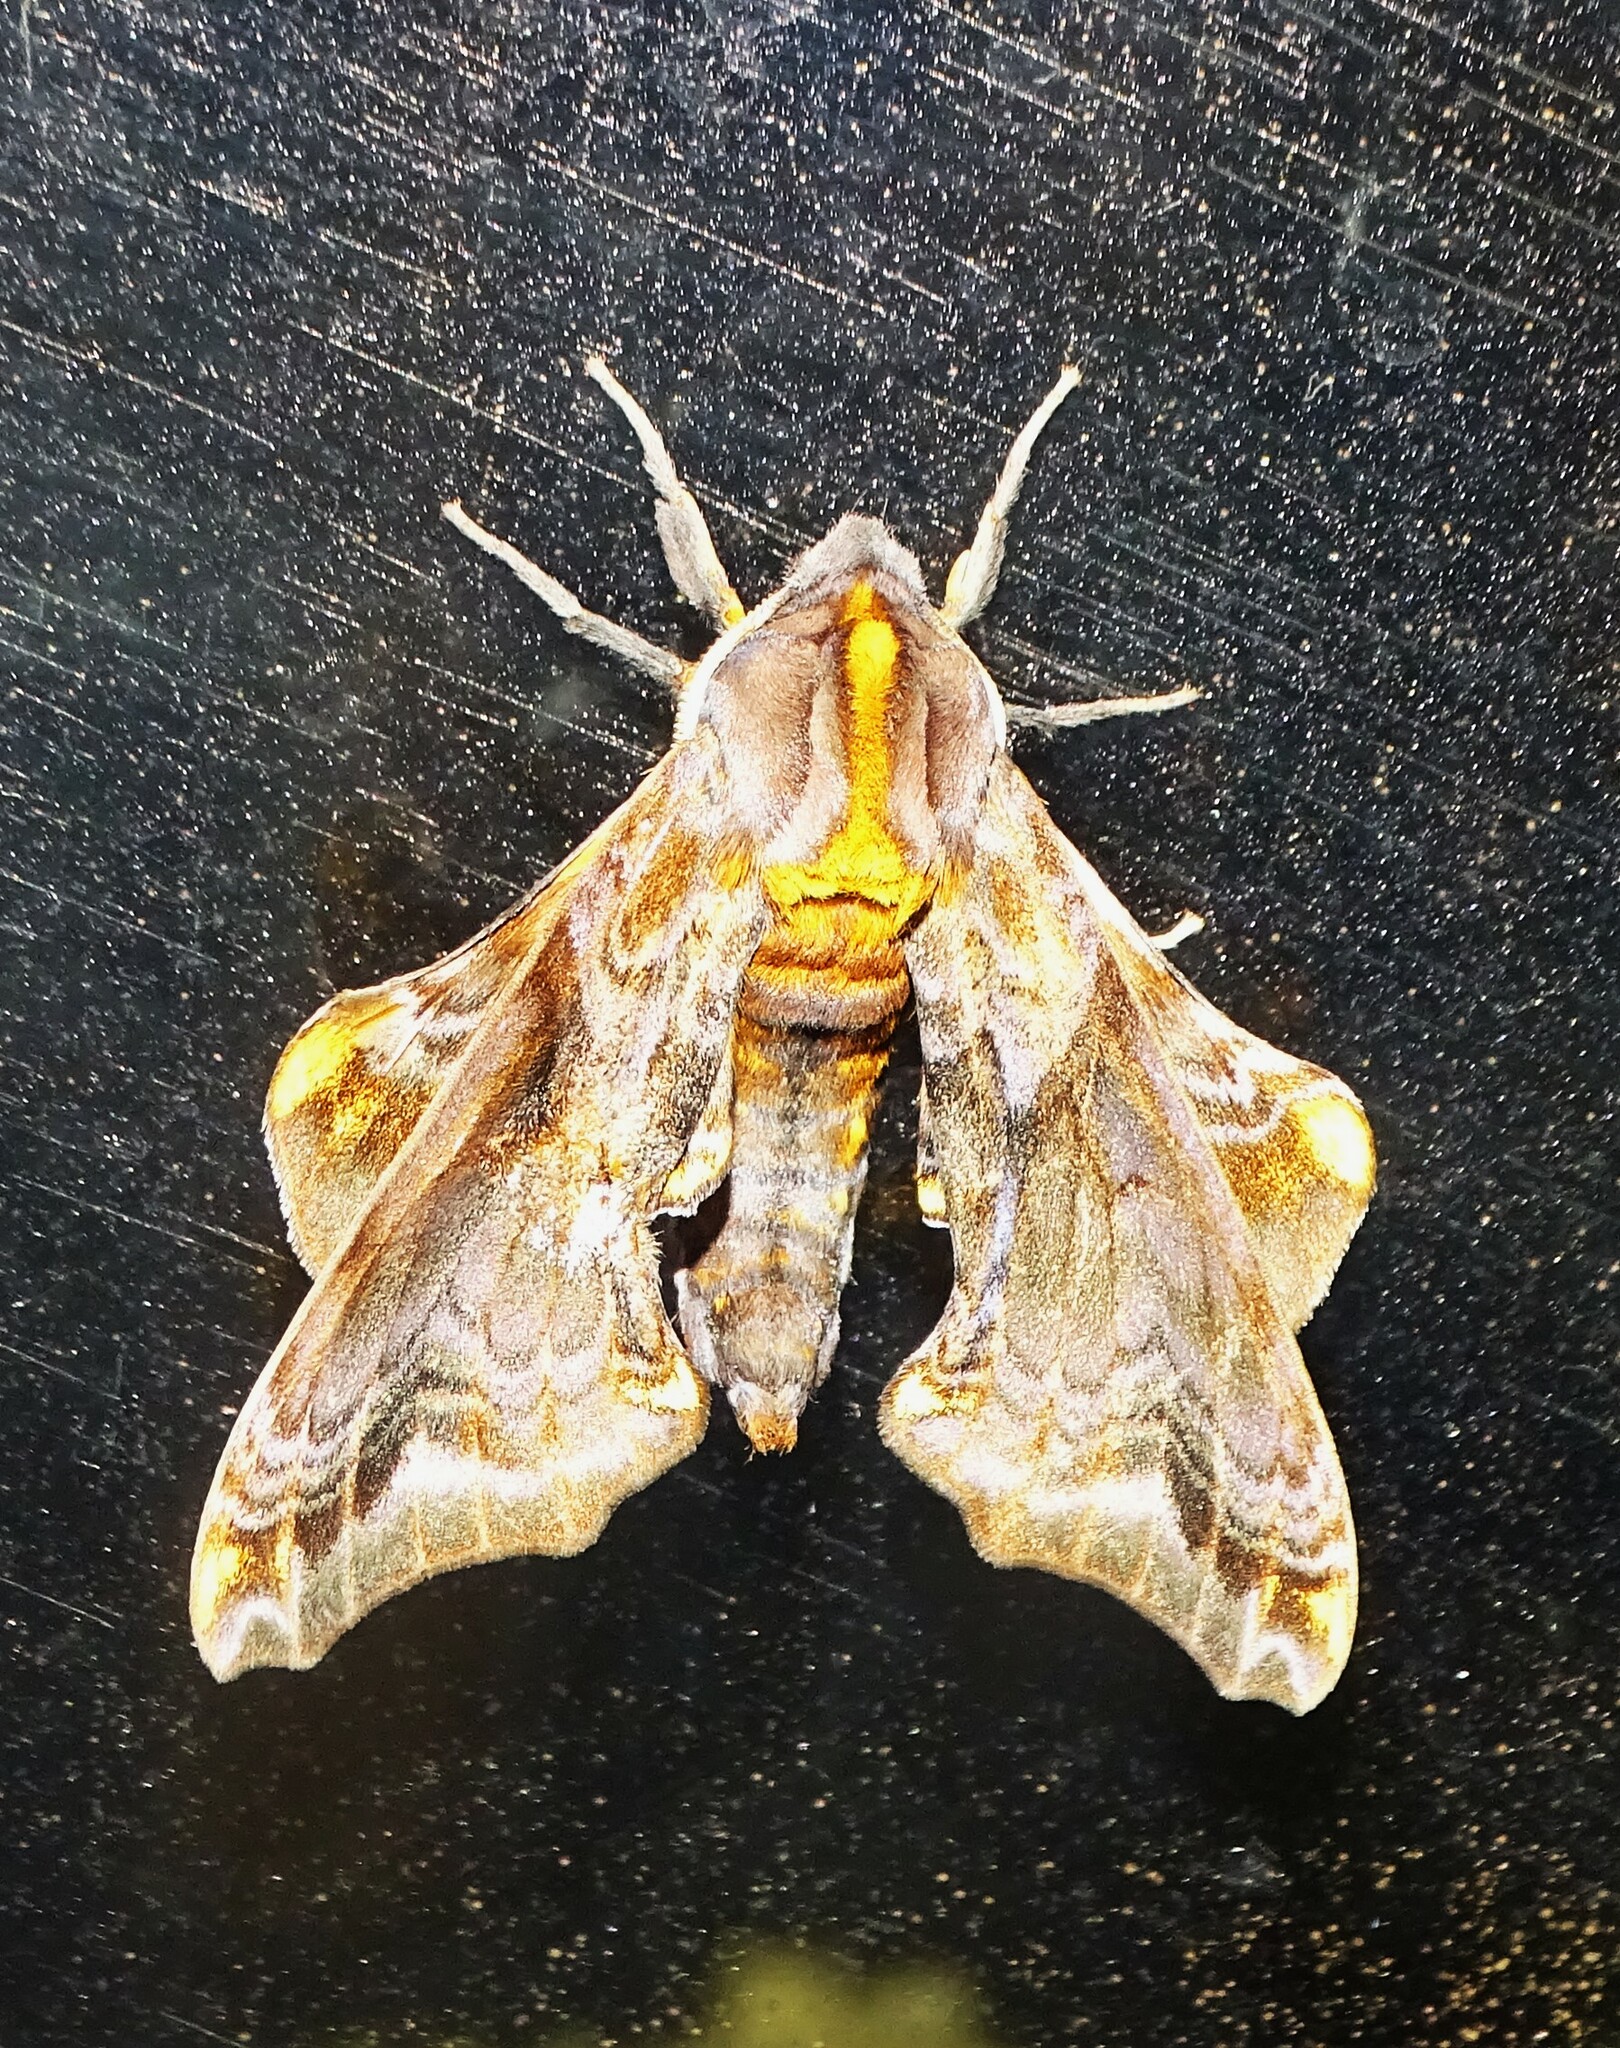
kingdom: Animalia
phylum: Arthropoda
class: Insecta
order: Lepidoptera
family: Sphingidae
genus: Paonias
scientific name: Paonias myops
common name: Small-eyed sphinx
